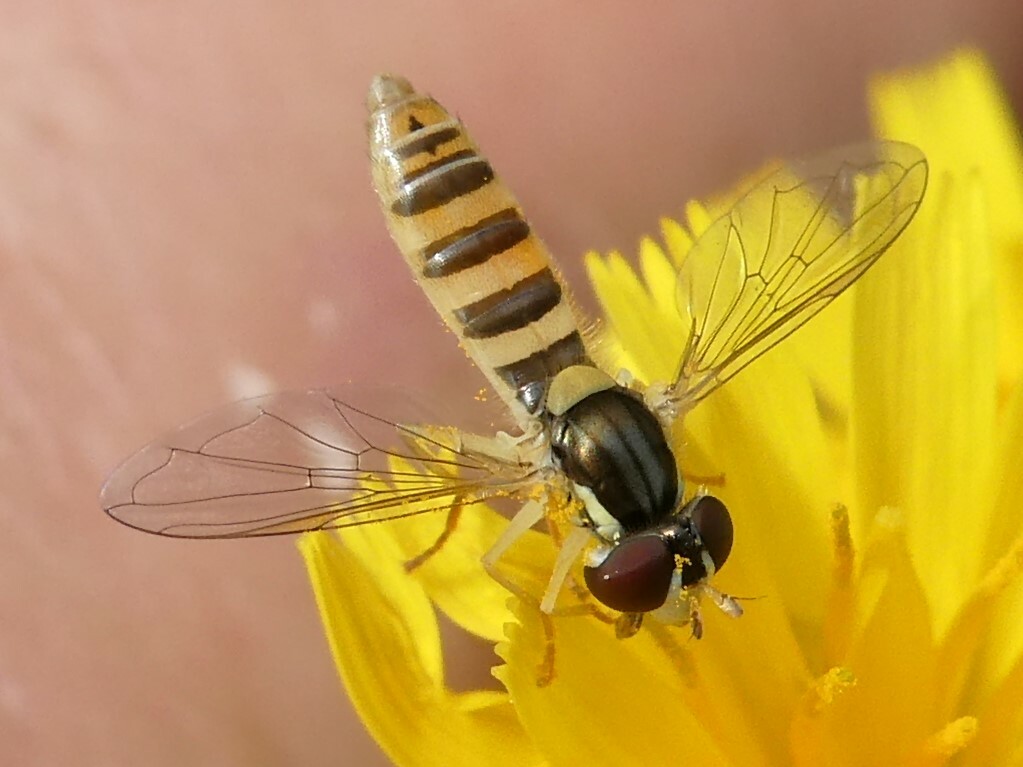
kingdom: Animalia
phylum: Arthropoda
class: Insecta
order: Diptera
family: Syrphidae
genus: Sphaerophoria
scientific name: Sphaerophoria contigua
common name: Tufted globetail
